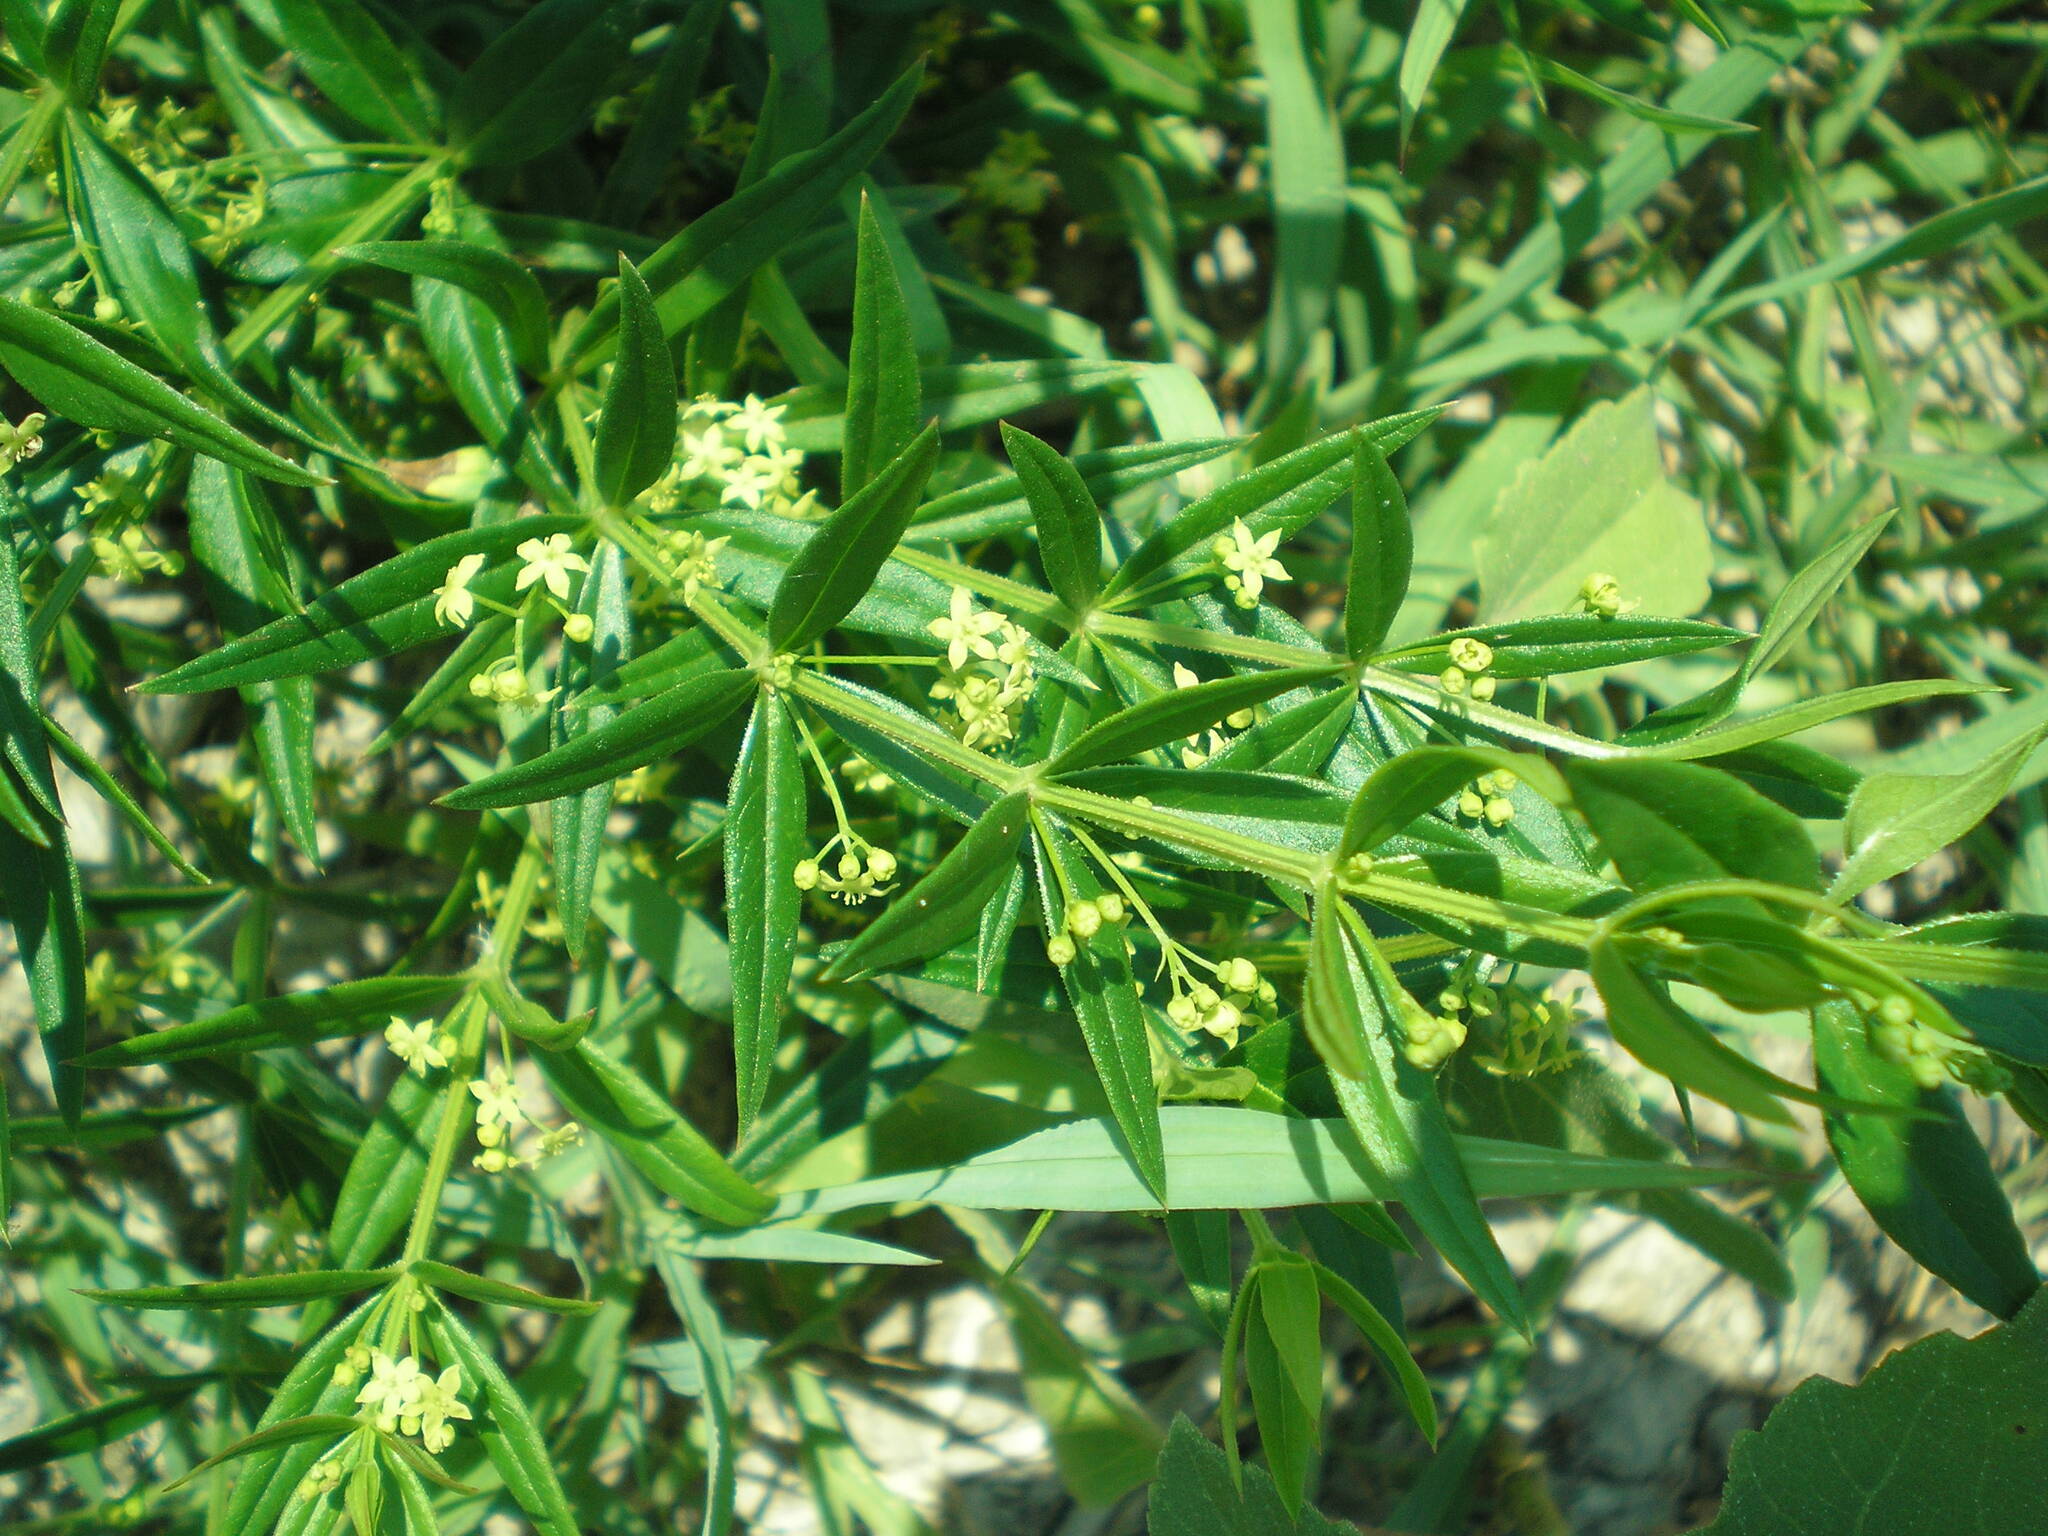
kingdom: Plantae
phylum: Tracheophyta
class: Magnoliopsida
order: Gentianales
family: Rubiaceae
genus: Rubia
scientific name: Rubia tinctorum
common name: Dyer's madder
